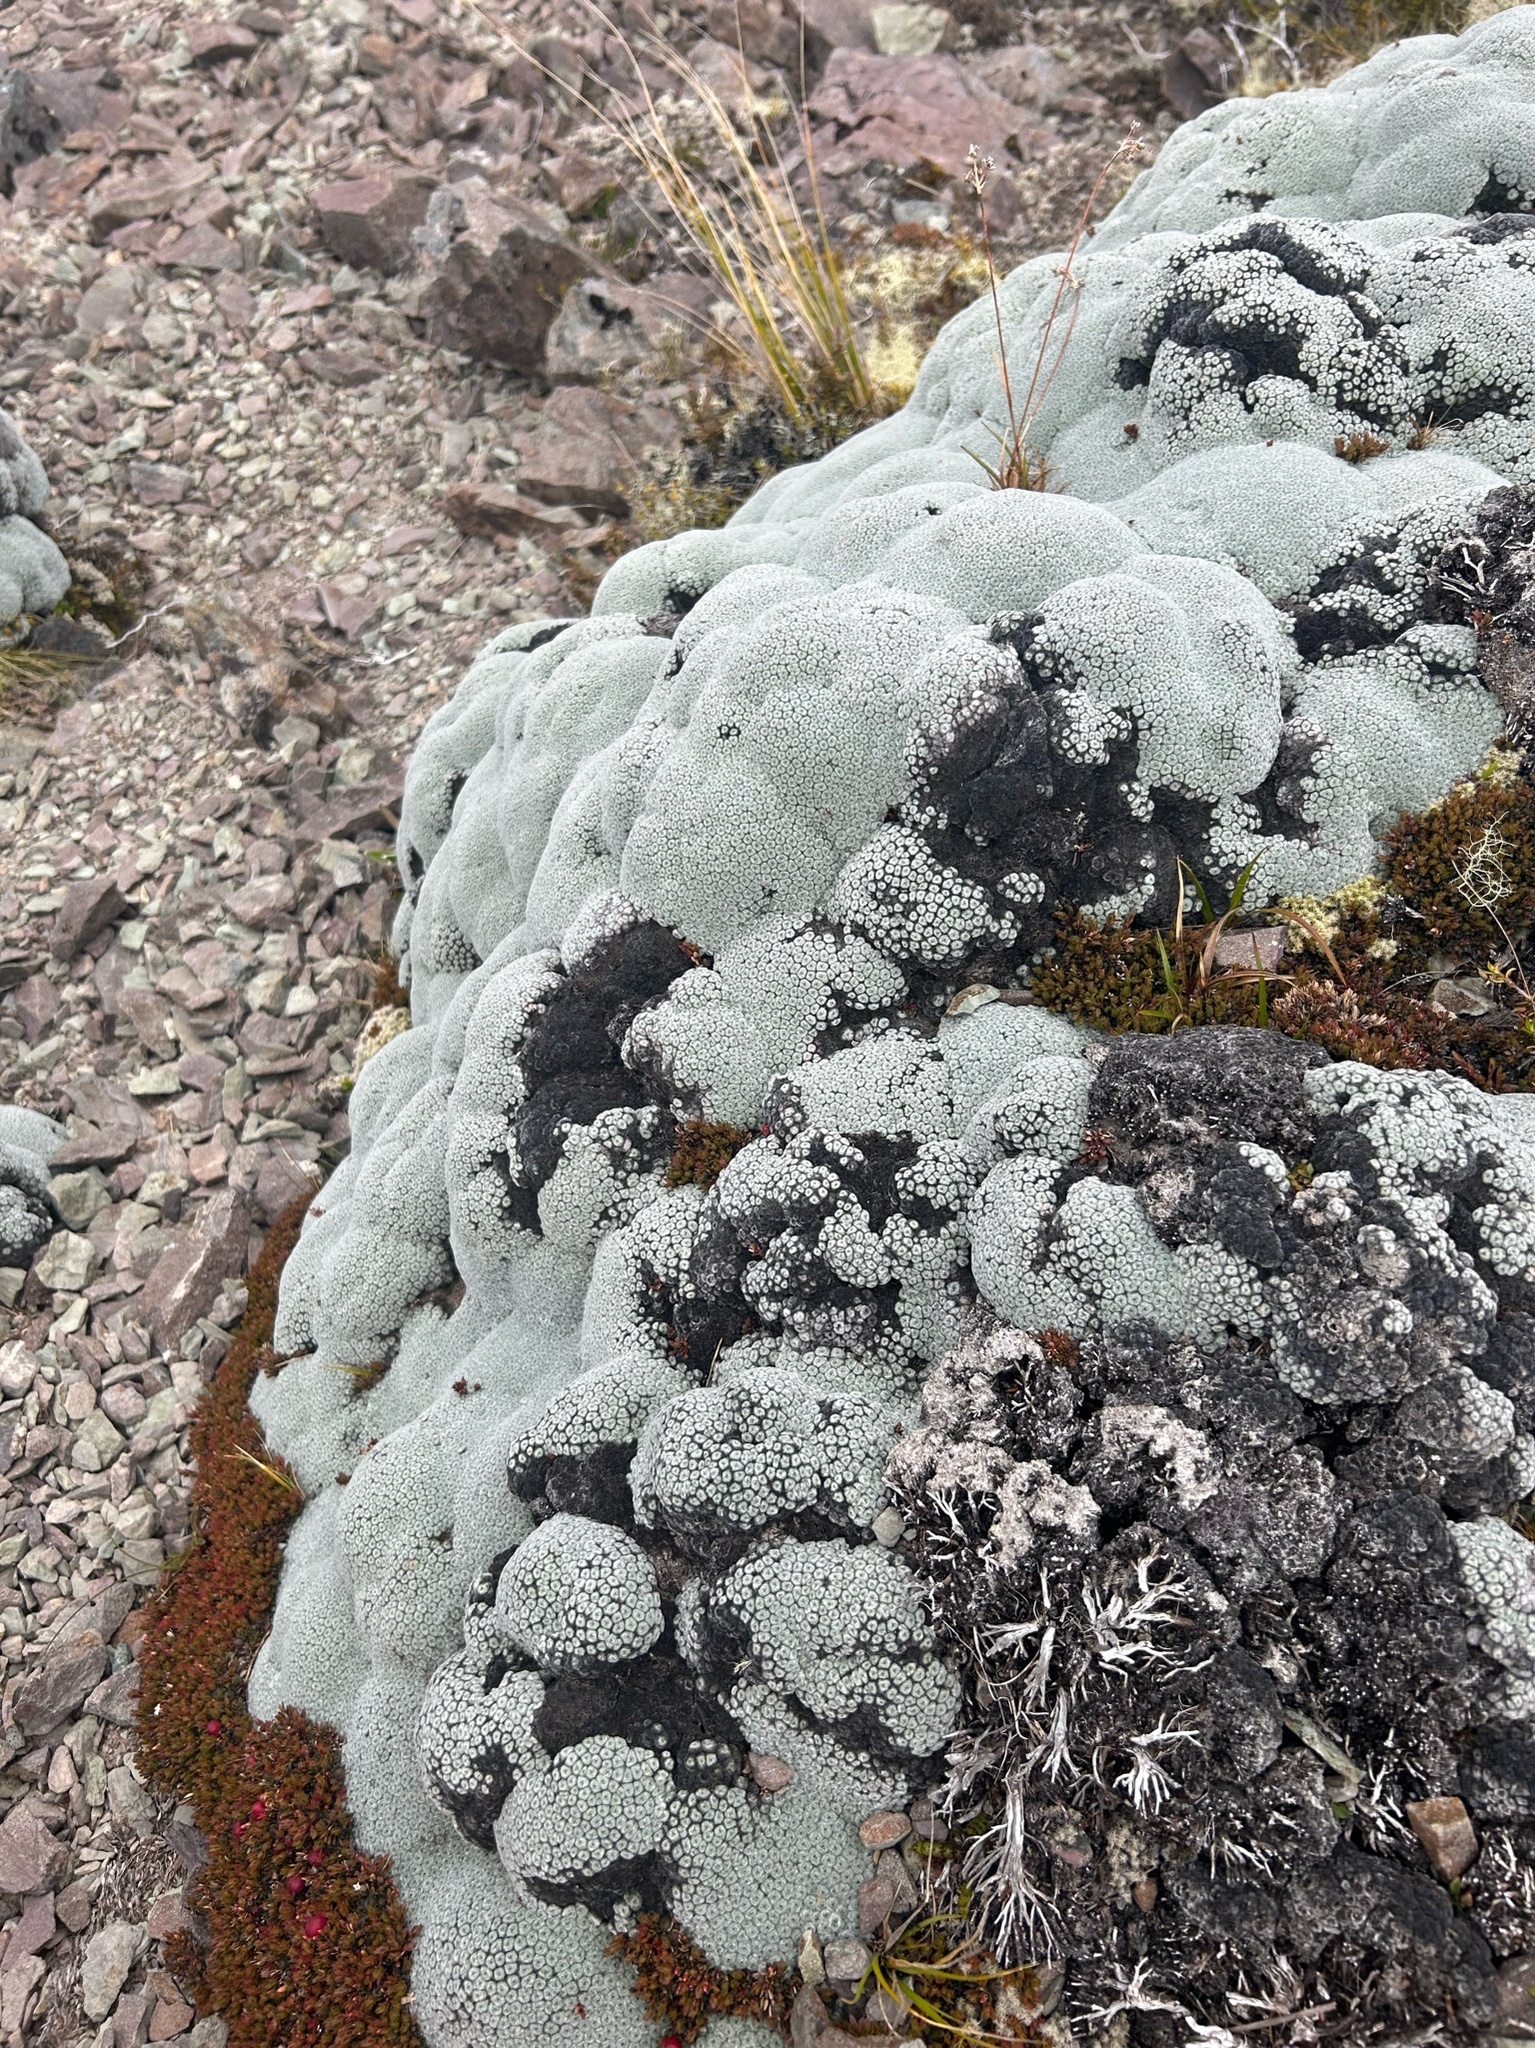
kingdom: Plantae
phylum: Tracheophyta
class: Magnoliopsida
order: Asterales
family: Asteraceae
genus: Raoulia
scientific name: Raoulia eximia
